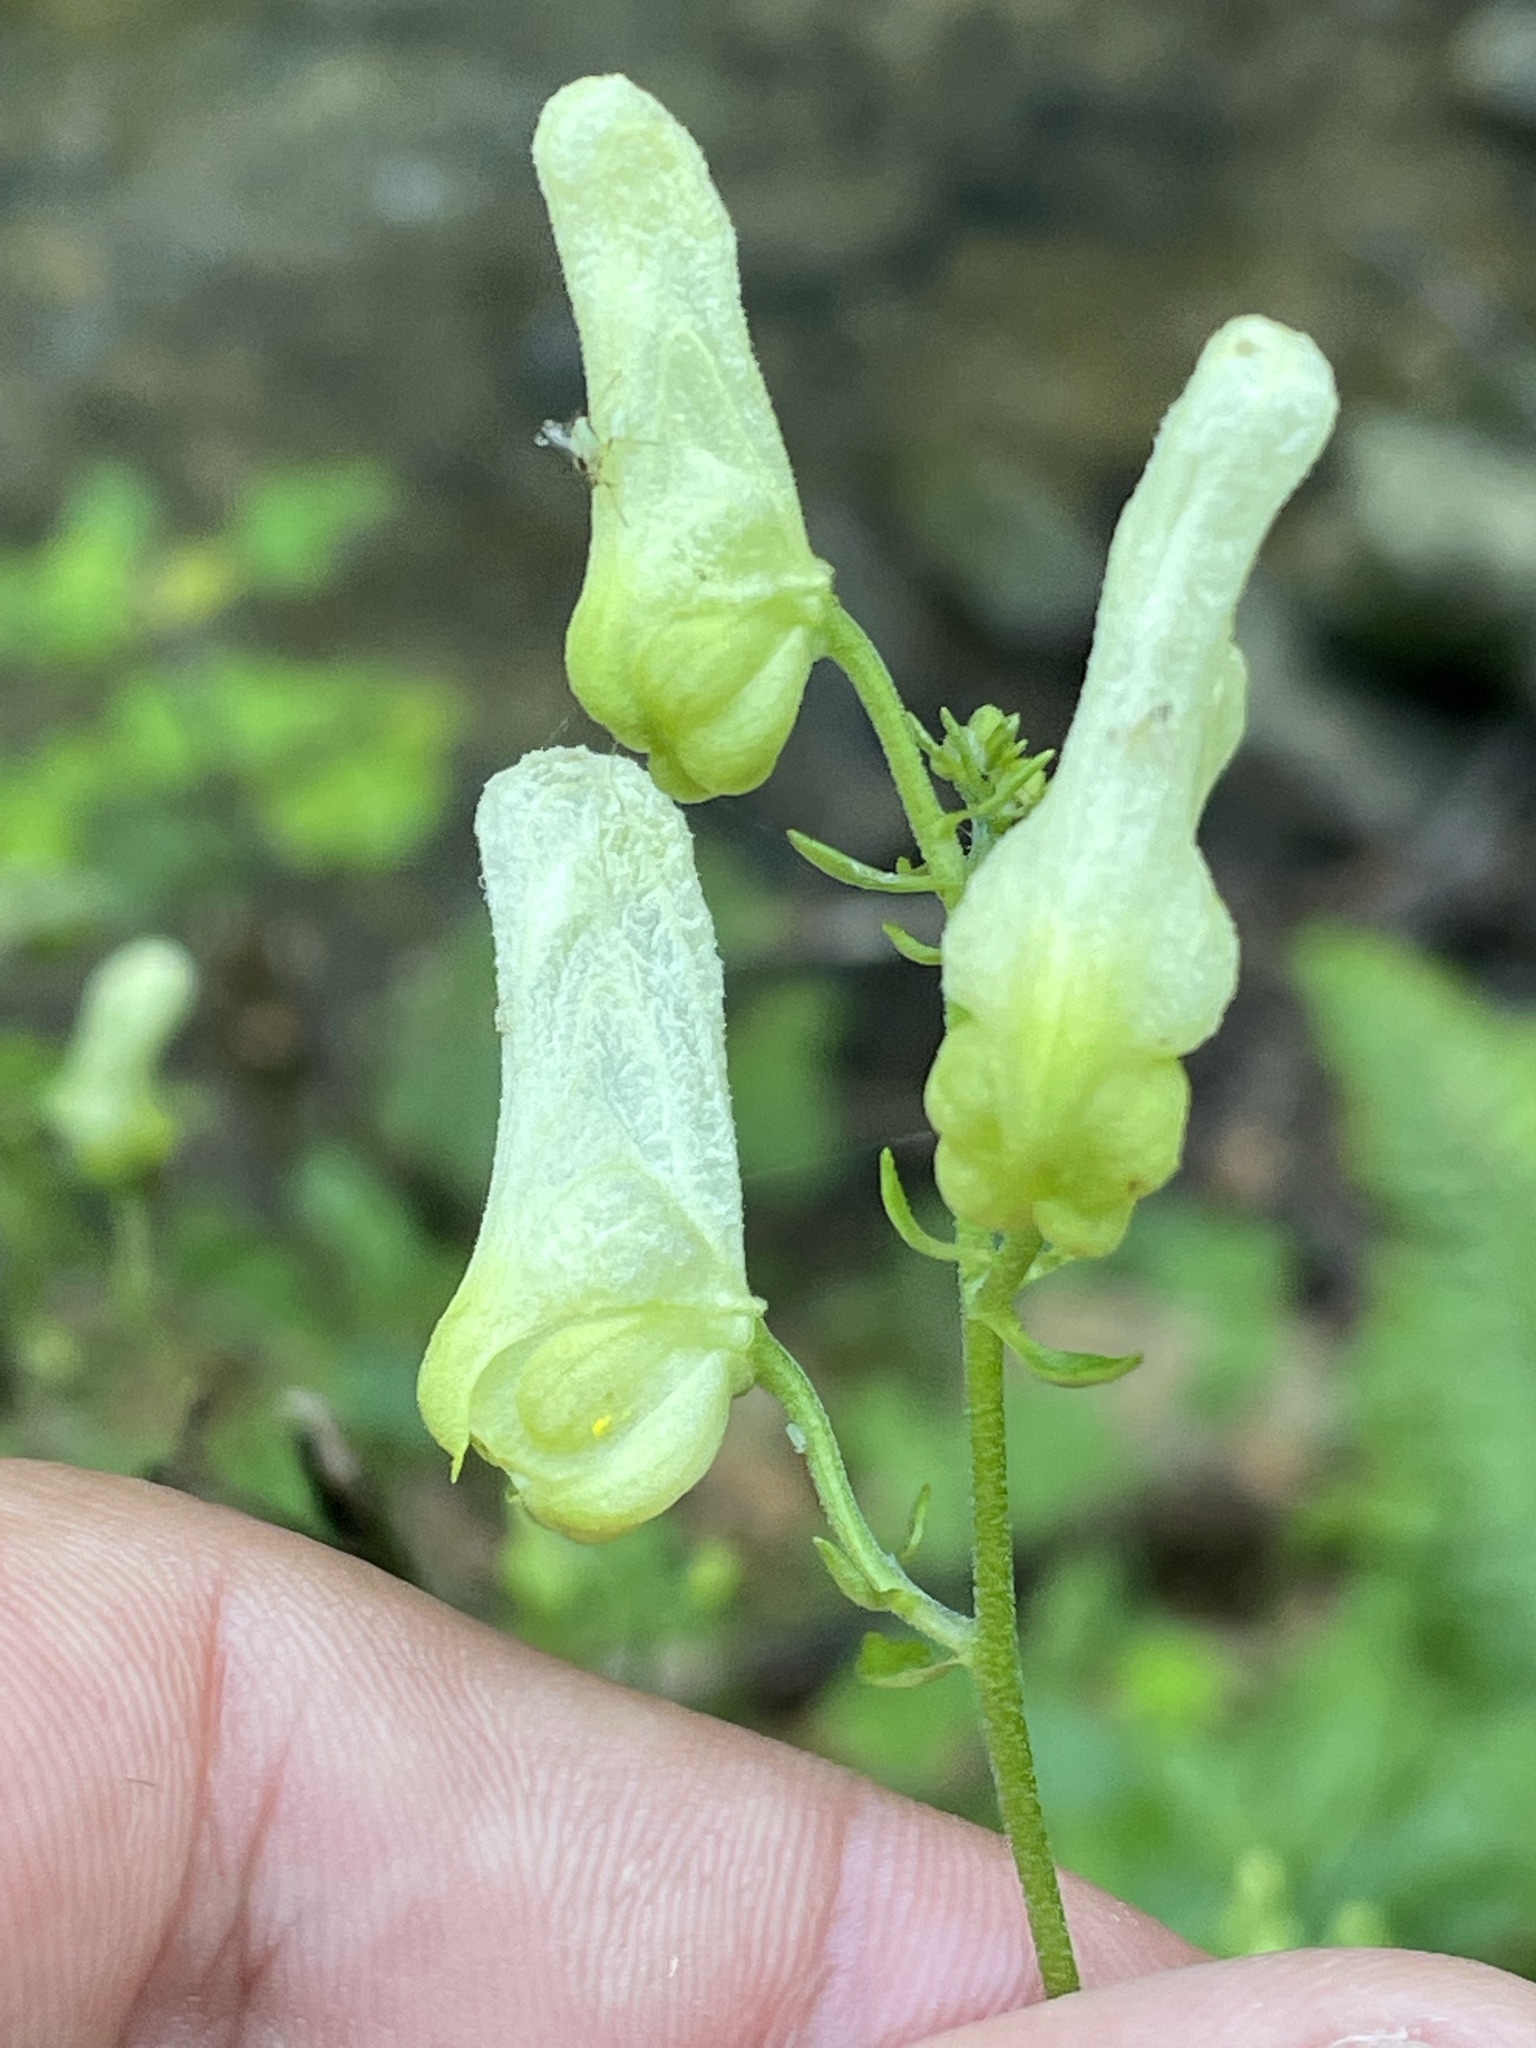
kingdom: Plantae
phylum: Tracheophyta
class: Magnoliopsida
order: Ranunculales
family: Ranunculaceae
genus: Aconitum
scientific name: Aconitum lycoctonum
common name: Wolf's-bane
